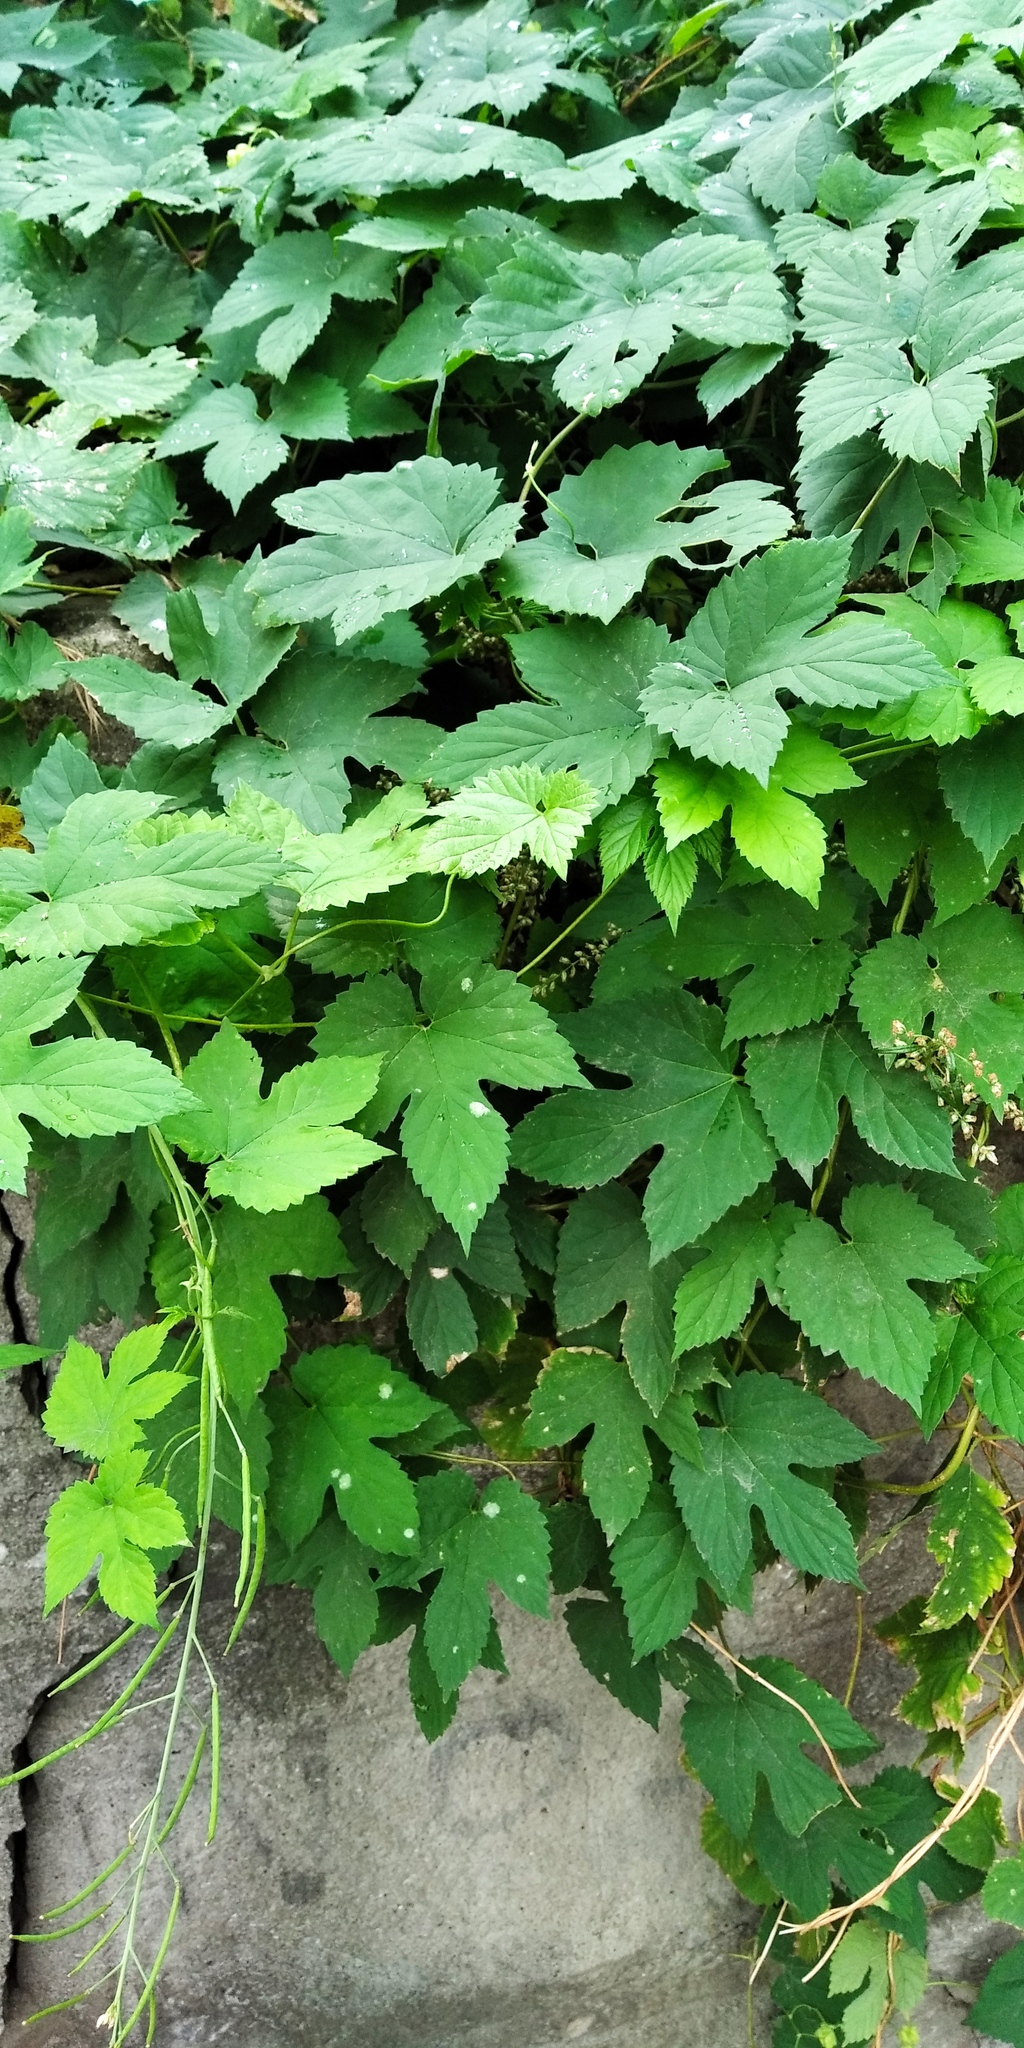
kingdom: Plantae
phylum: Tracheophyta
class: Magnoliopsida
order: Rosales
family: Cannabaceae
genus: Humulus
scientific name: Humulus lupulus
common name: Hop
